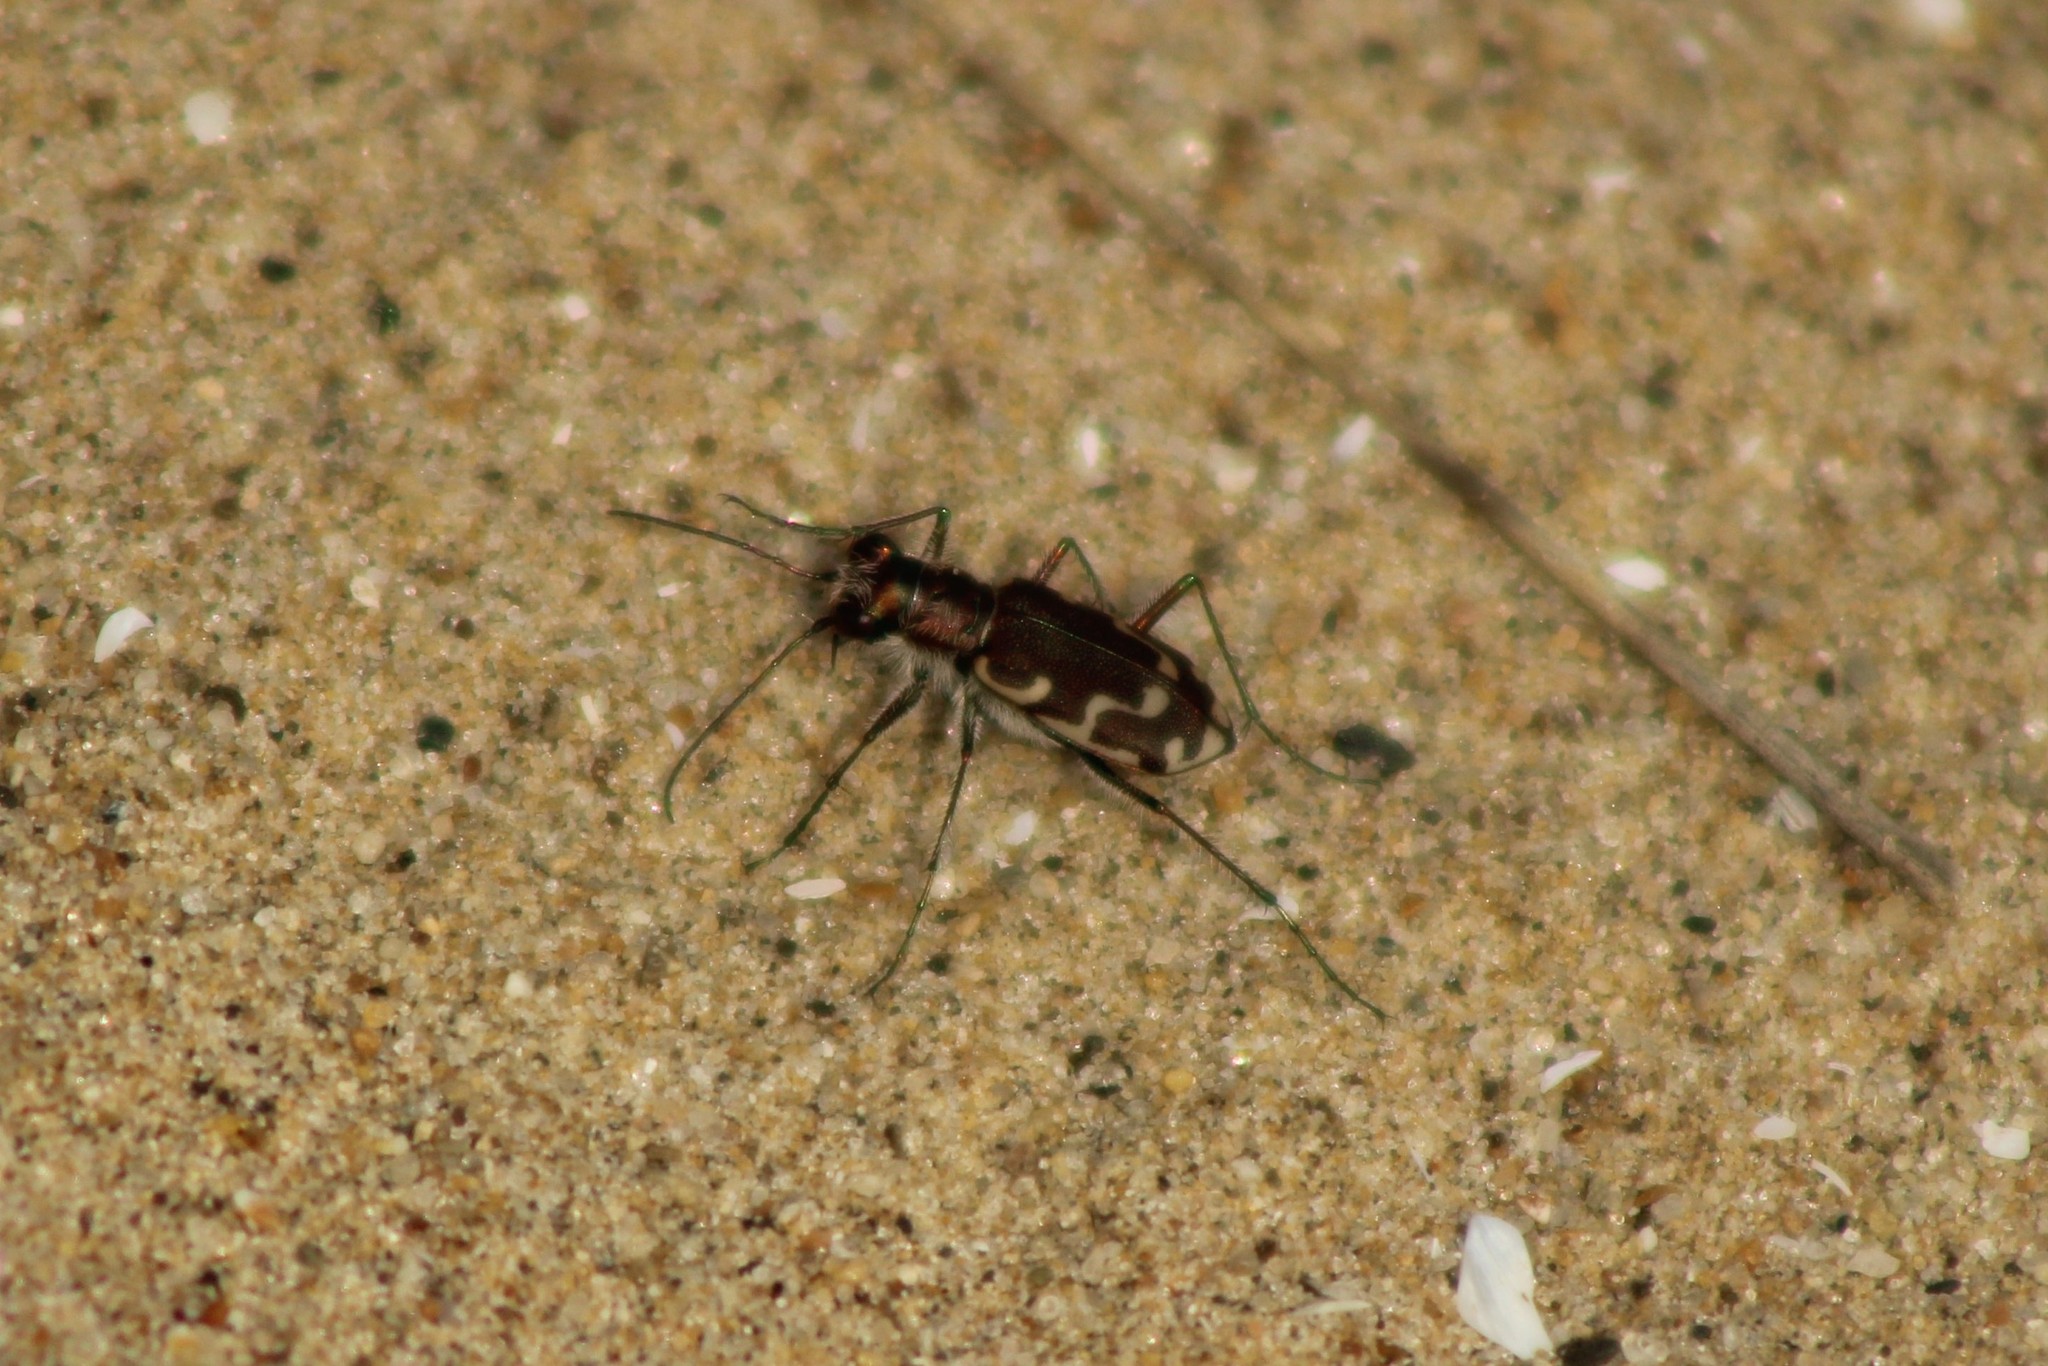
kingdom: Animalia
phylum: Arthropoda
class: Insecta
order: Coleoptera
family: Carabidae
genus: Cicindela
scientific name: Cicindela repanda
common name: Bronzed tiger beetle
